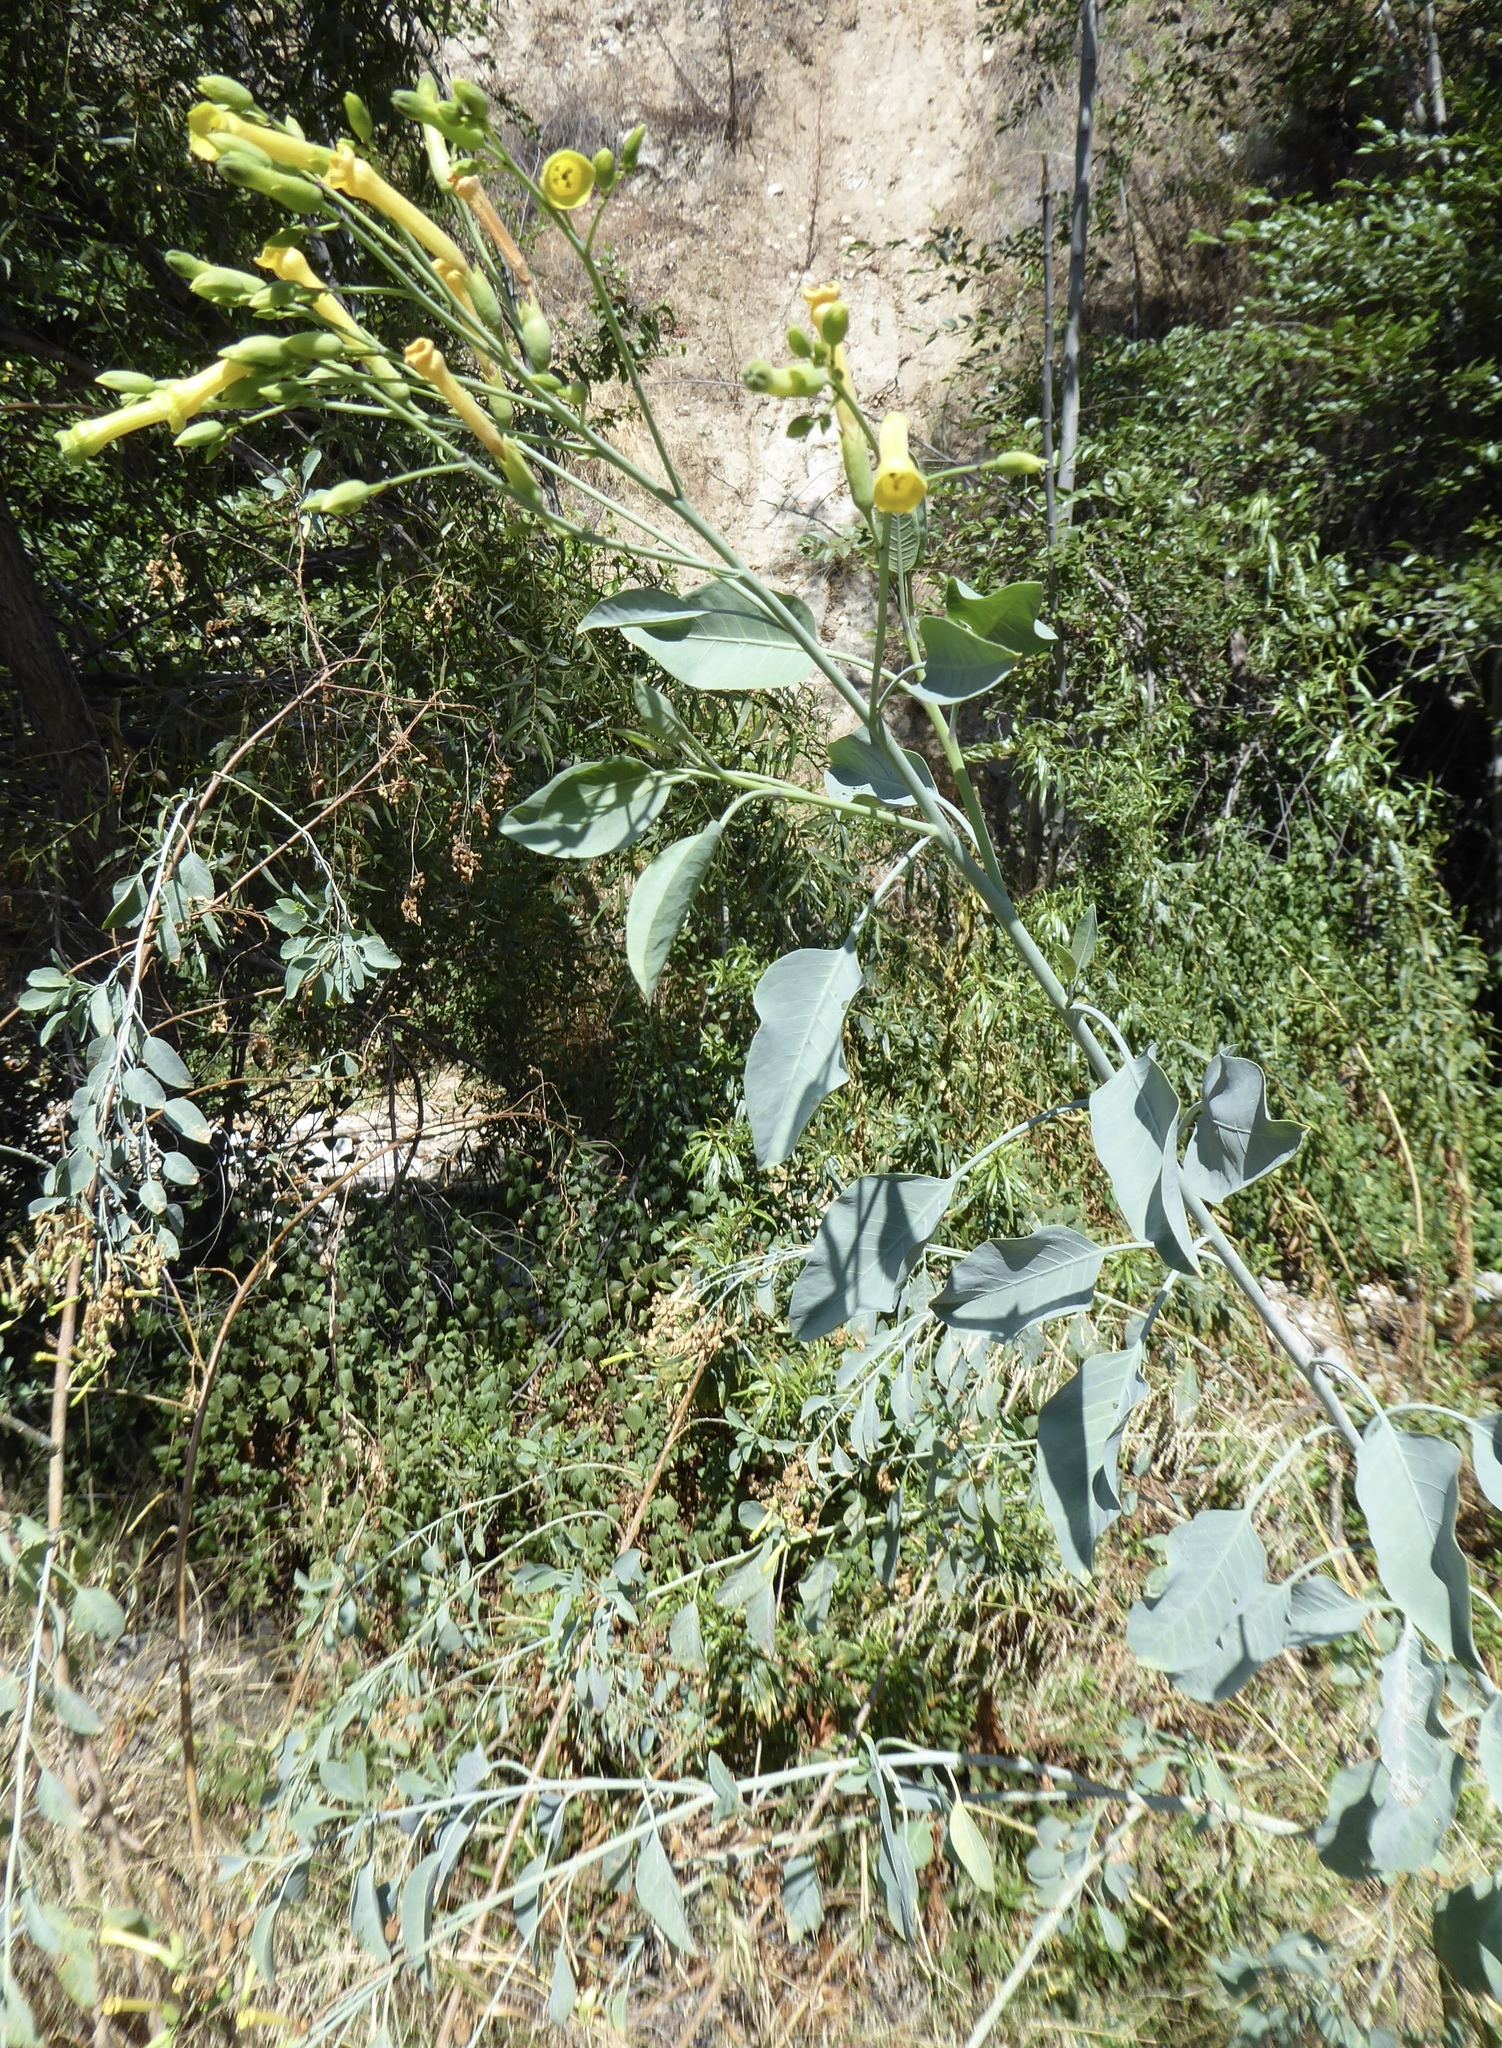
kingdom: Plantae
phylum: Tracheophyta
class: Magnoliopsida
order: Solanales
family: Solanaceae
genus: Nicotiana
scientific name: Nicotiana glauca
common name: Tree tobacco
